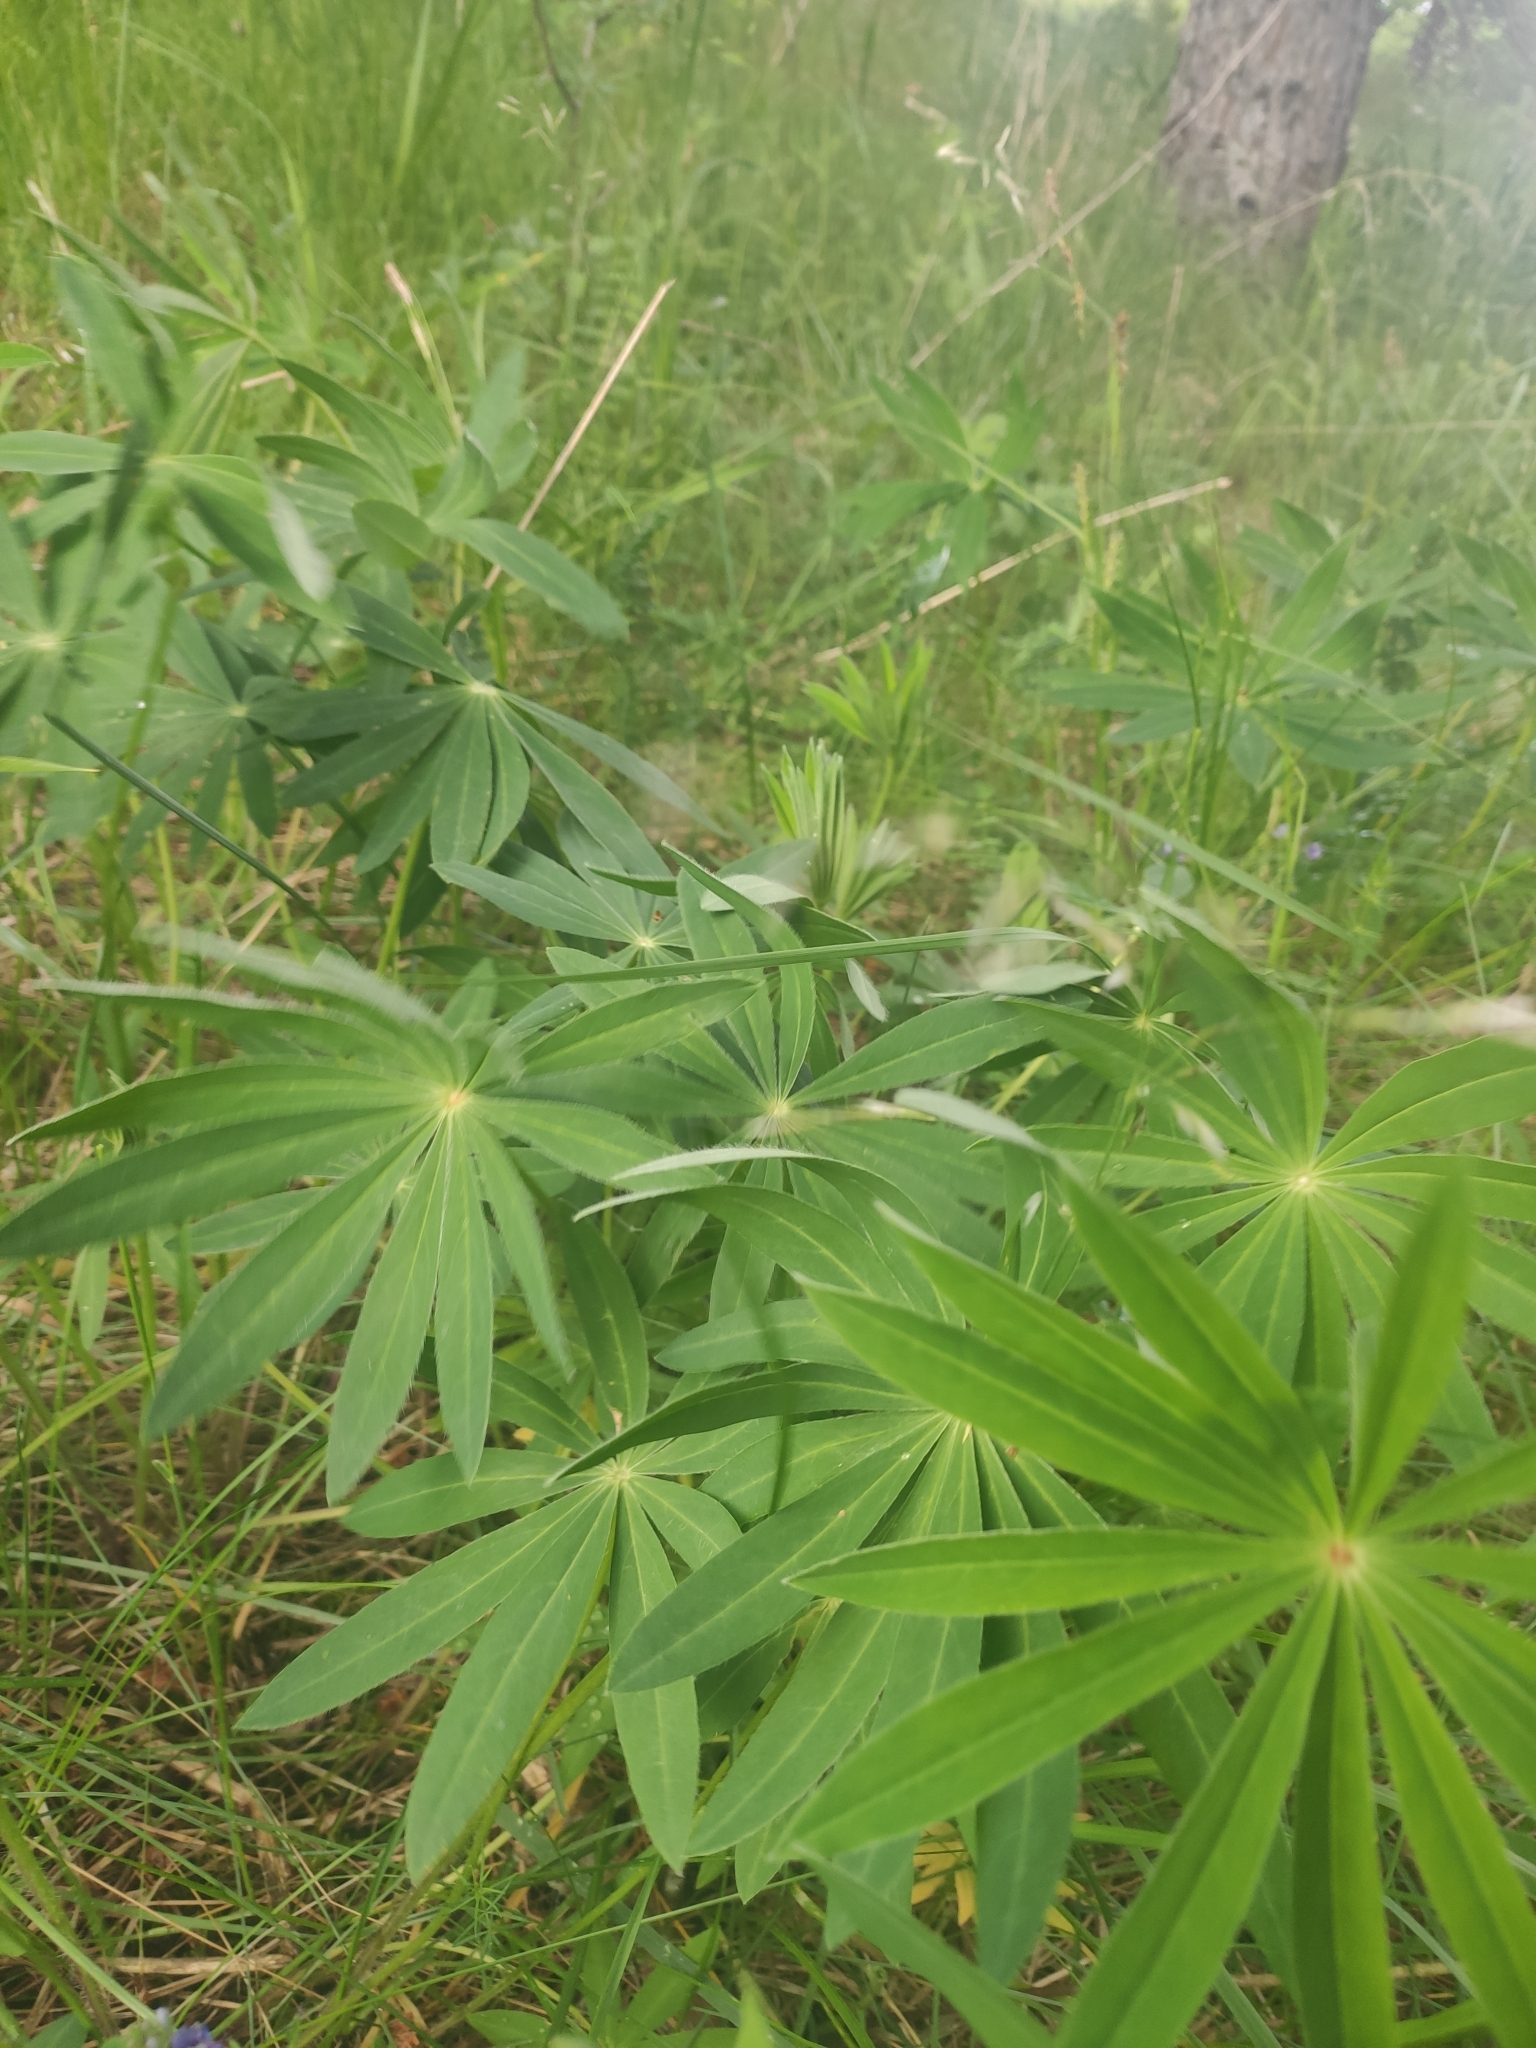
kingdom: Plantae
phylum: Tracheophyta
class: Magnoliopsida
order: Fabales
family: Fabaceae
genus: Lupinus
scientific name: Lupinus polyphyllus
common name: Garden lupin
